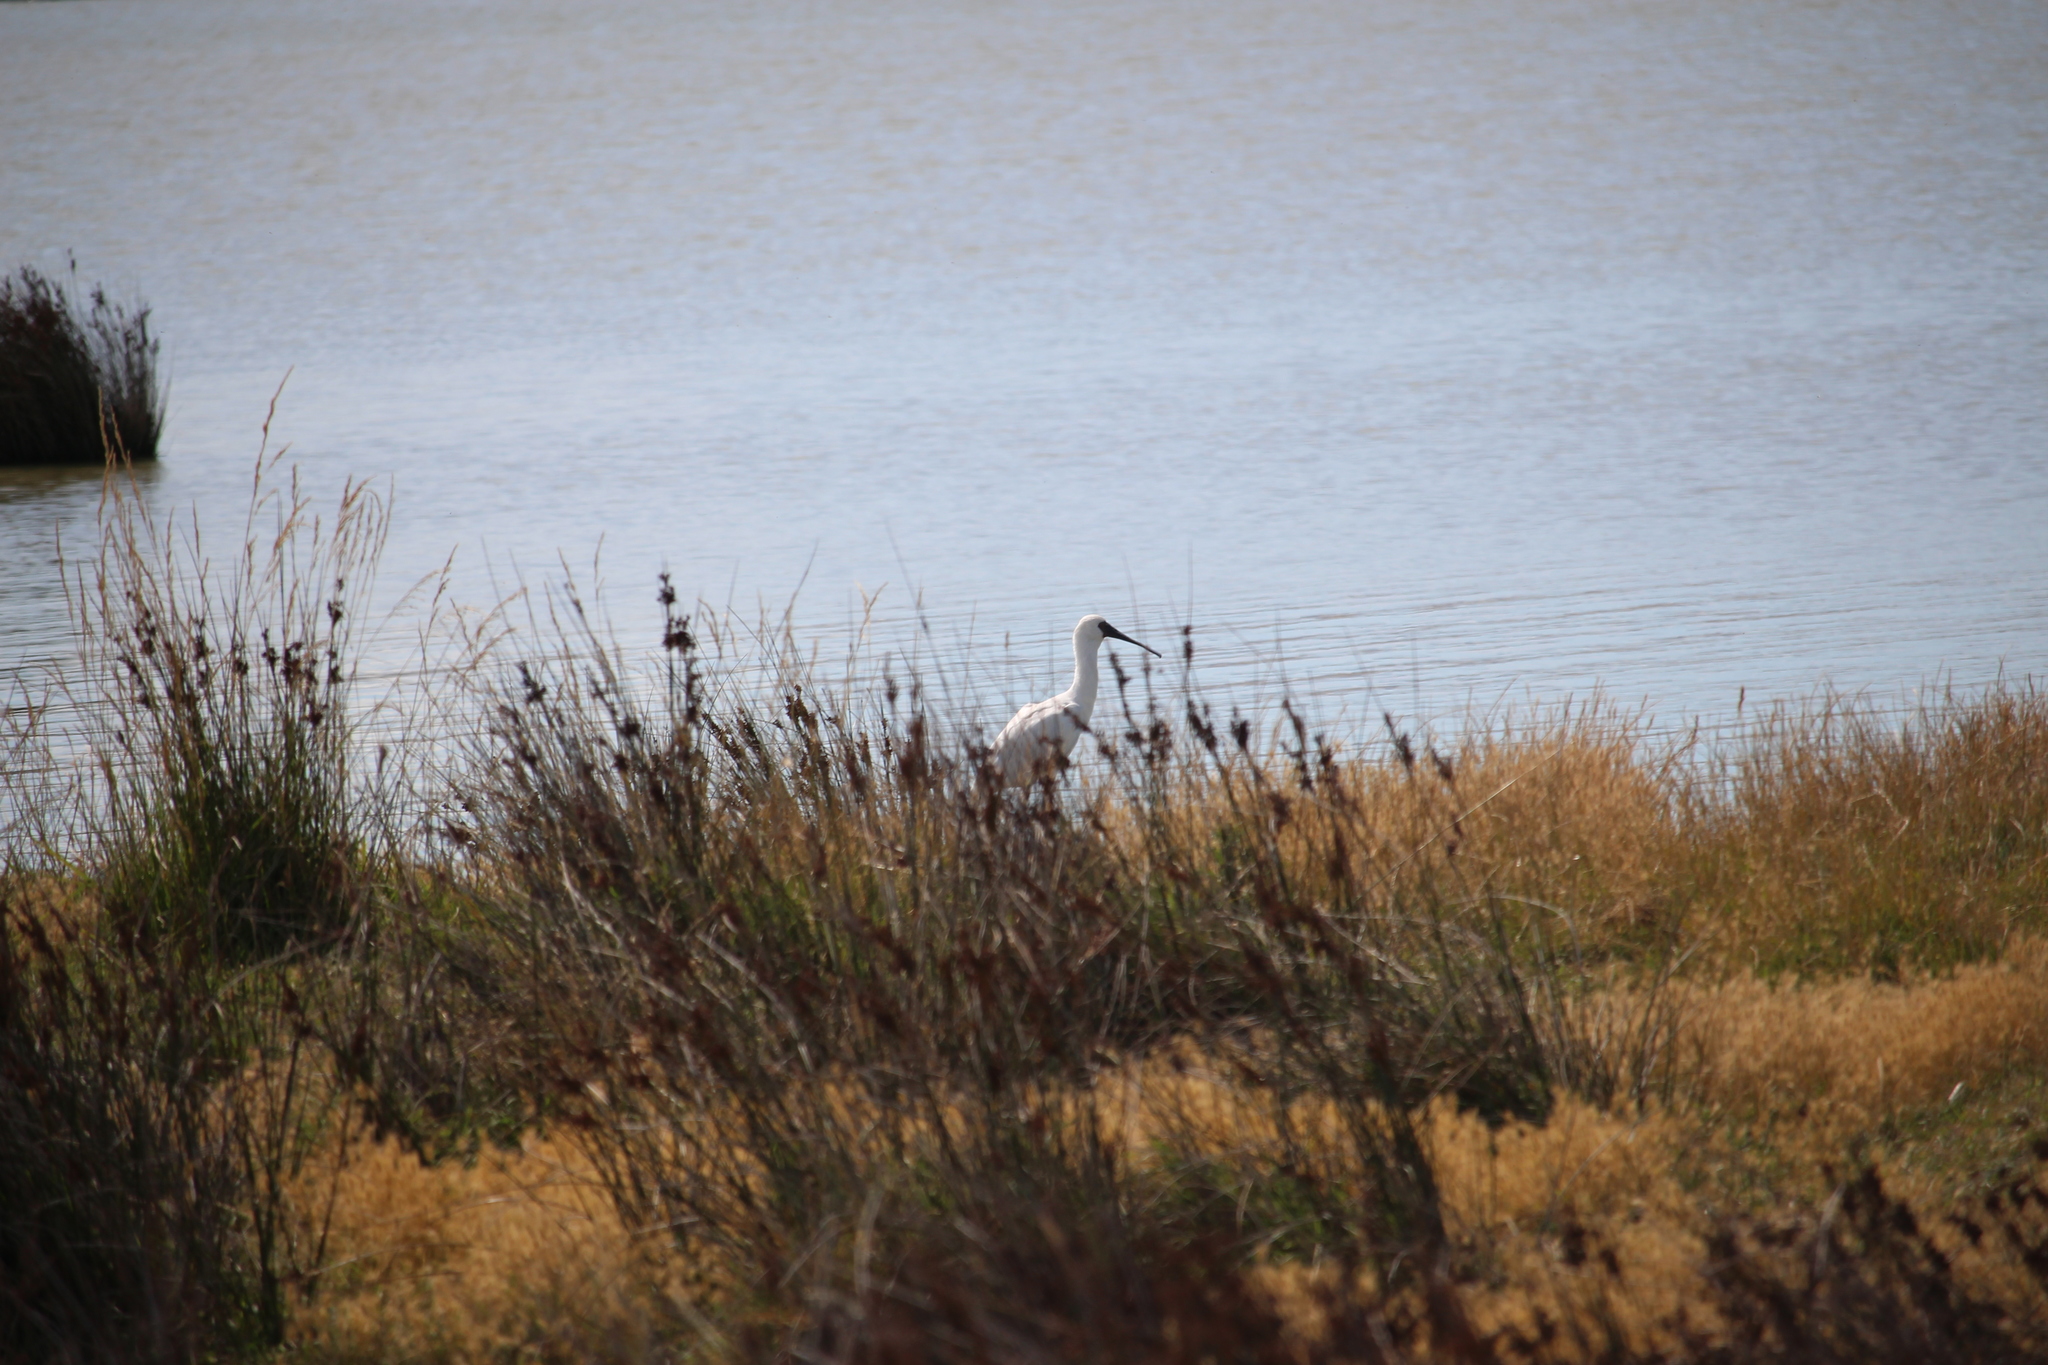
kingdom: Animalia
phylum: Chordata
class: Aves
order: Pelecaniformes
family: Threskiornithidae
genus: Platalea
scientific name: Platalea regia
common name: Royal spoonbill
